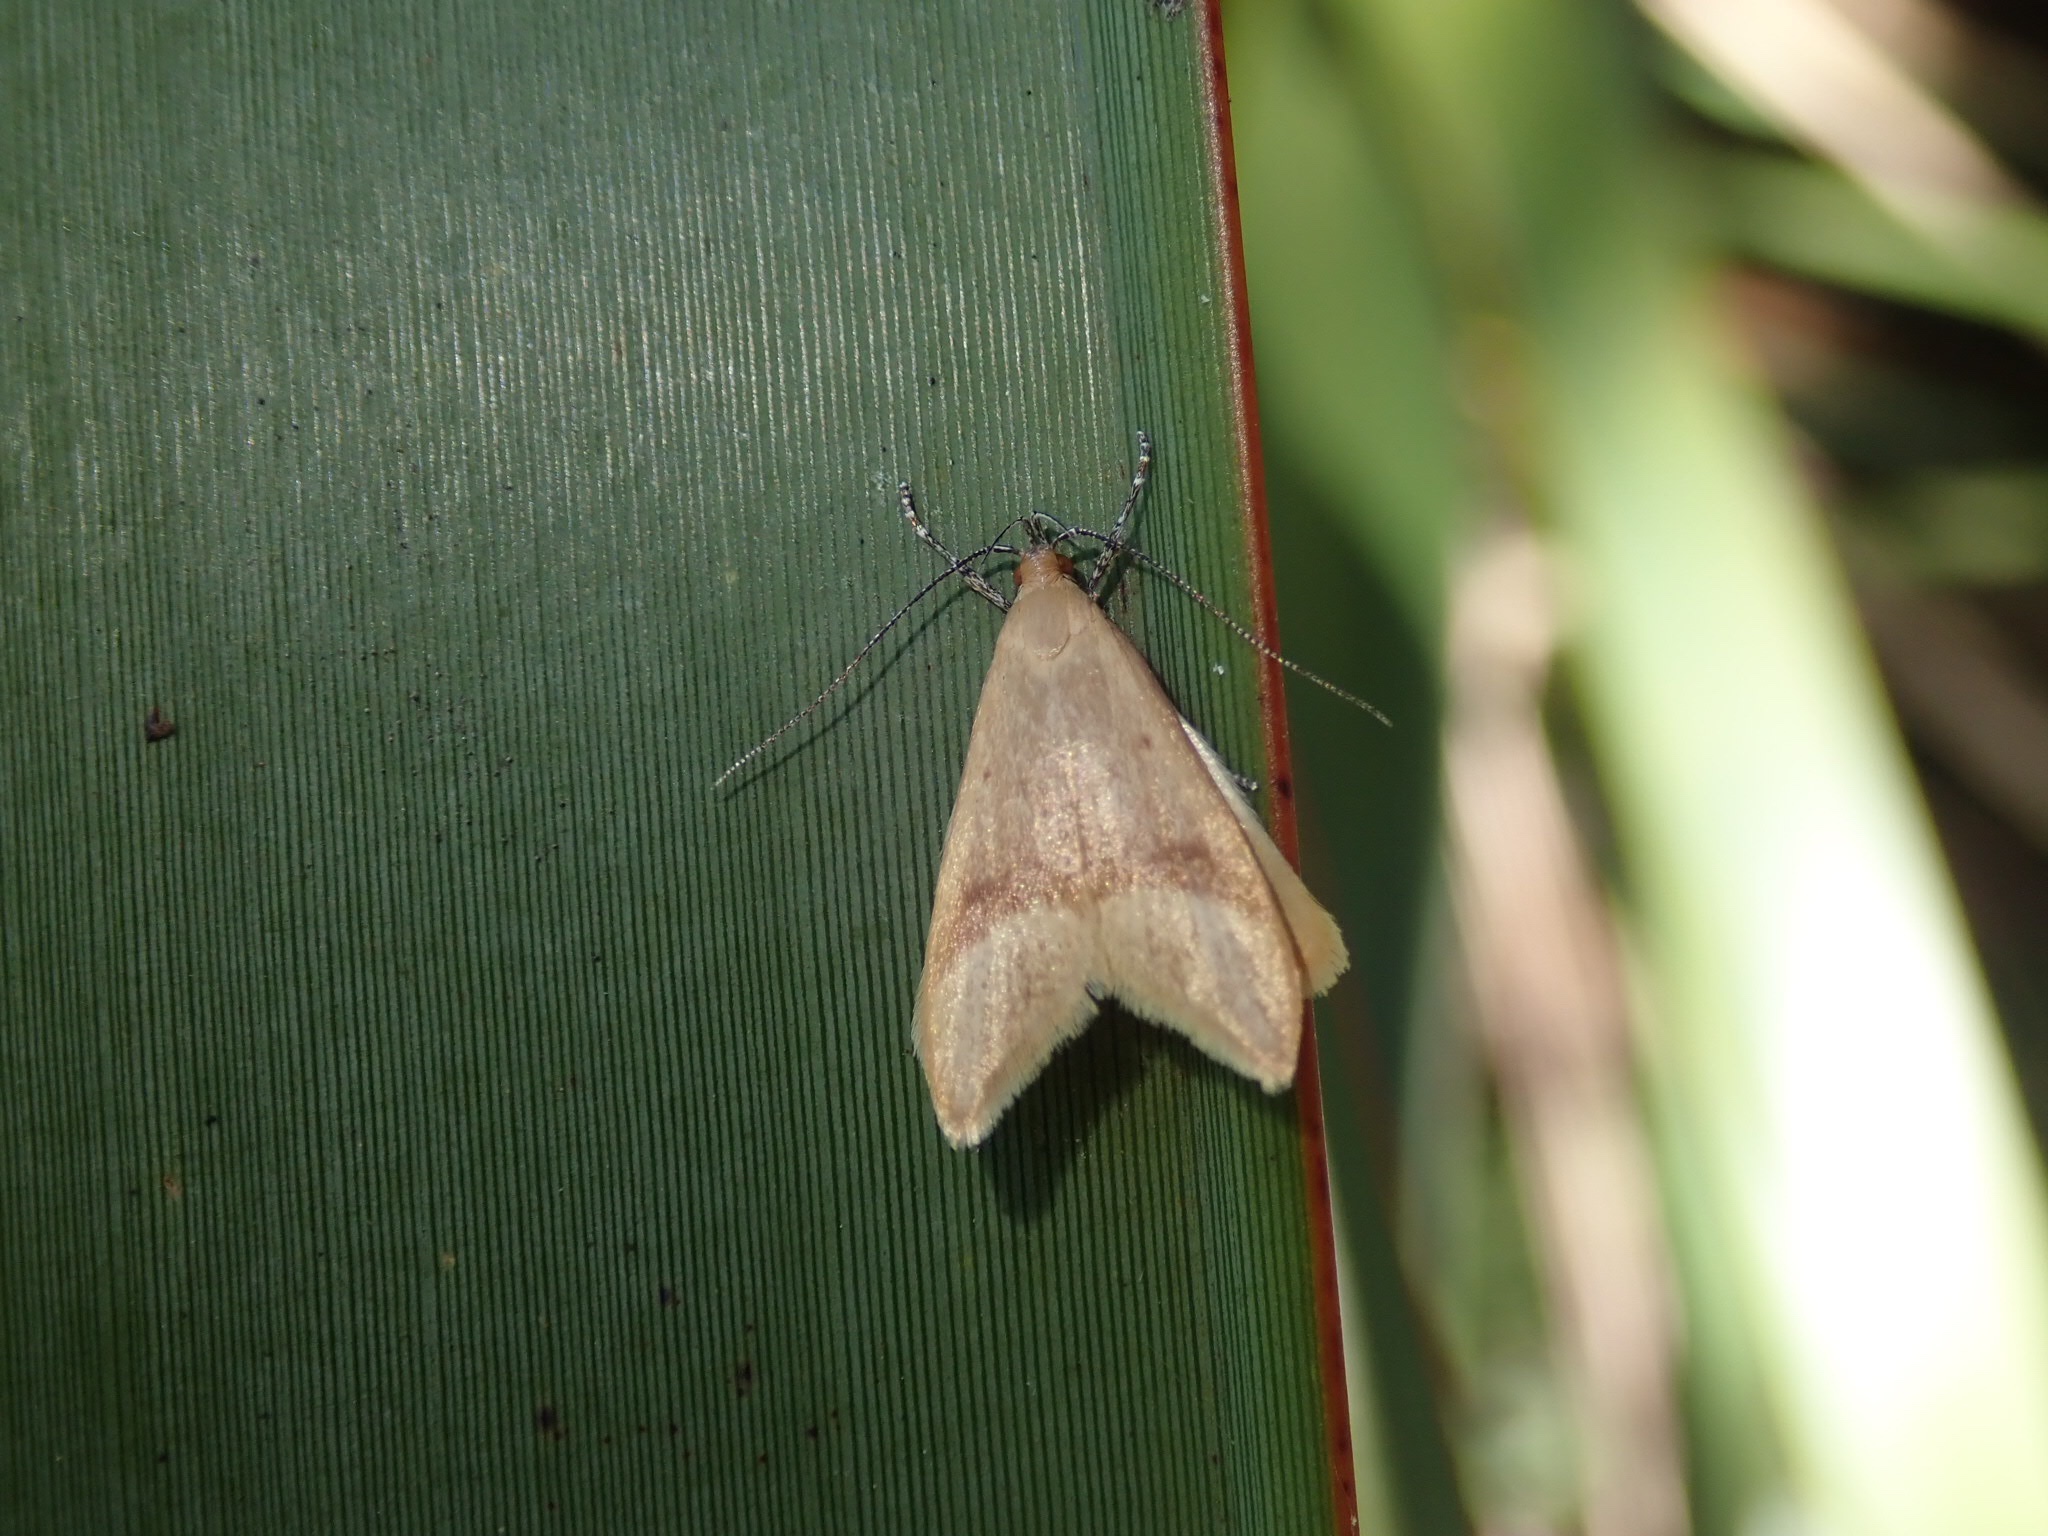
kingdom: Animalia
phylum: Arthropoda
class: Insecta
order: Lepidoptera
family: Oecophoridae
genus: Gymnobathra
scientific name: Gymnobathra hyetodes
